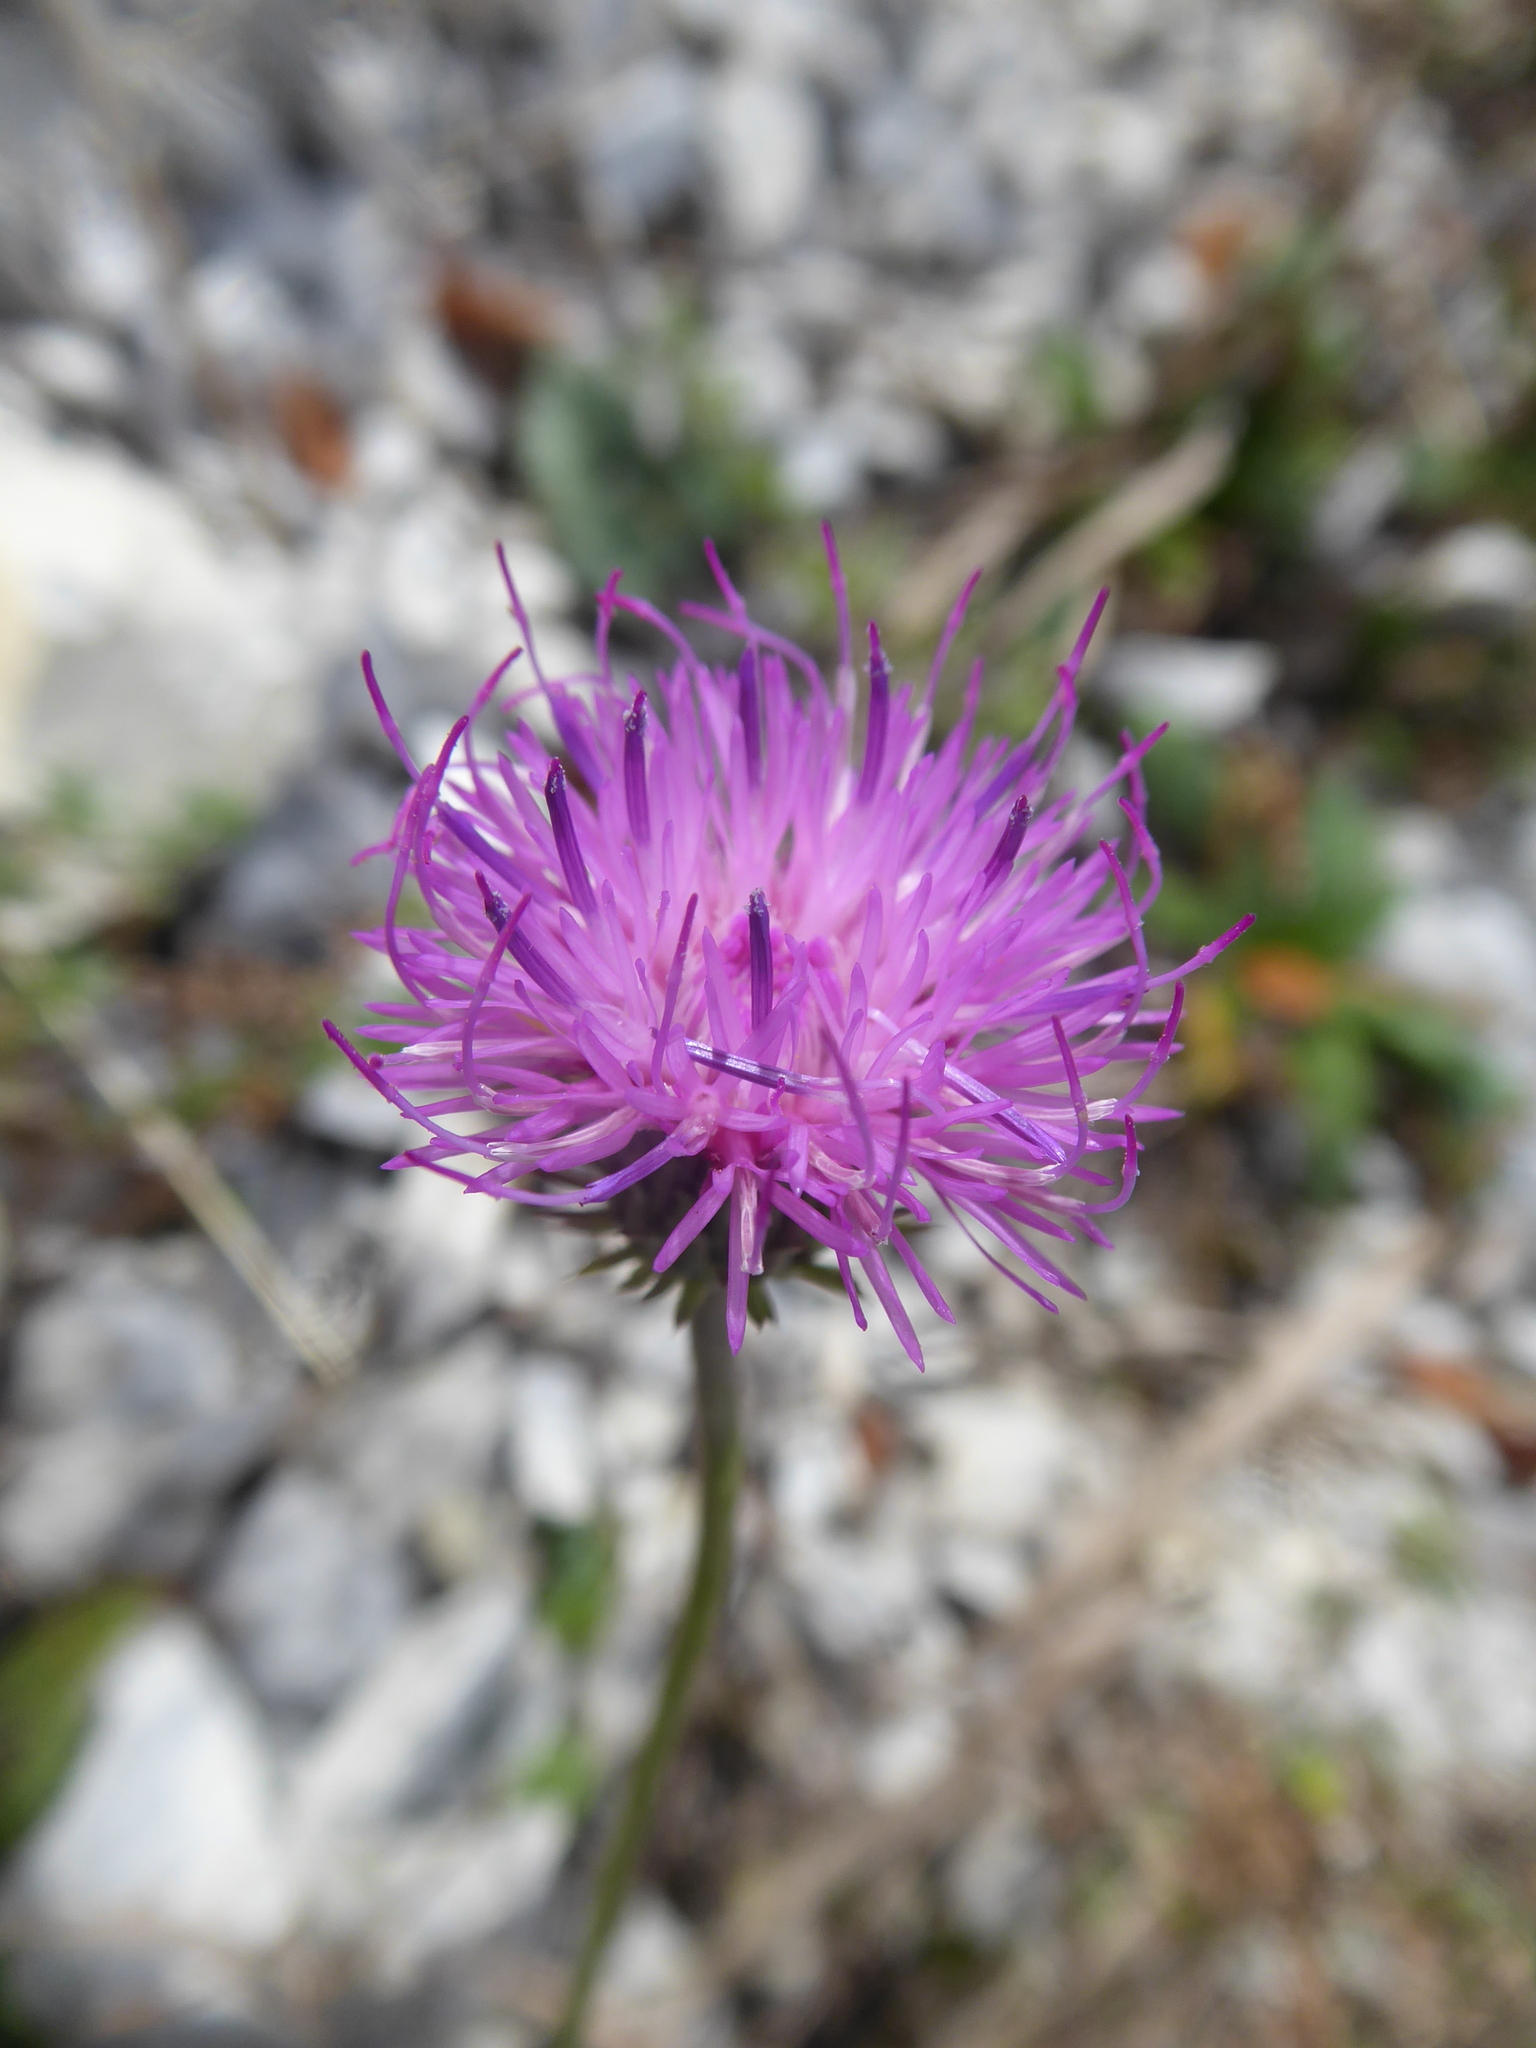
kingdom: Plantae
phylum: Tracheophyta
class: Magnoliopsida
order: Asterales
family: Asteraceae
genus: Carduus
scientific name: Carduus defloratus
